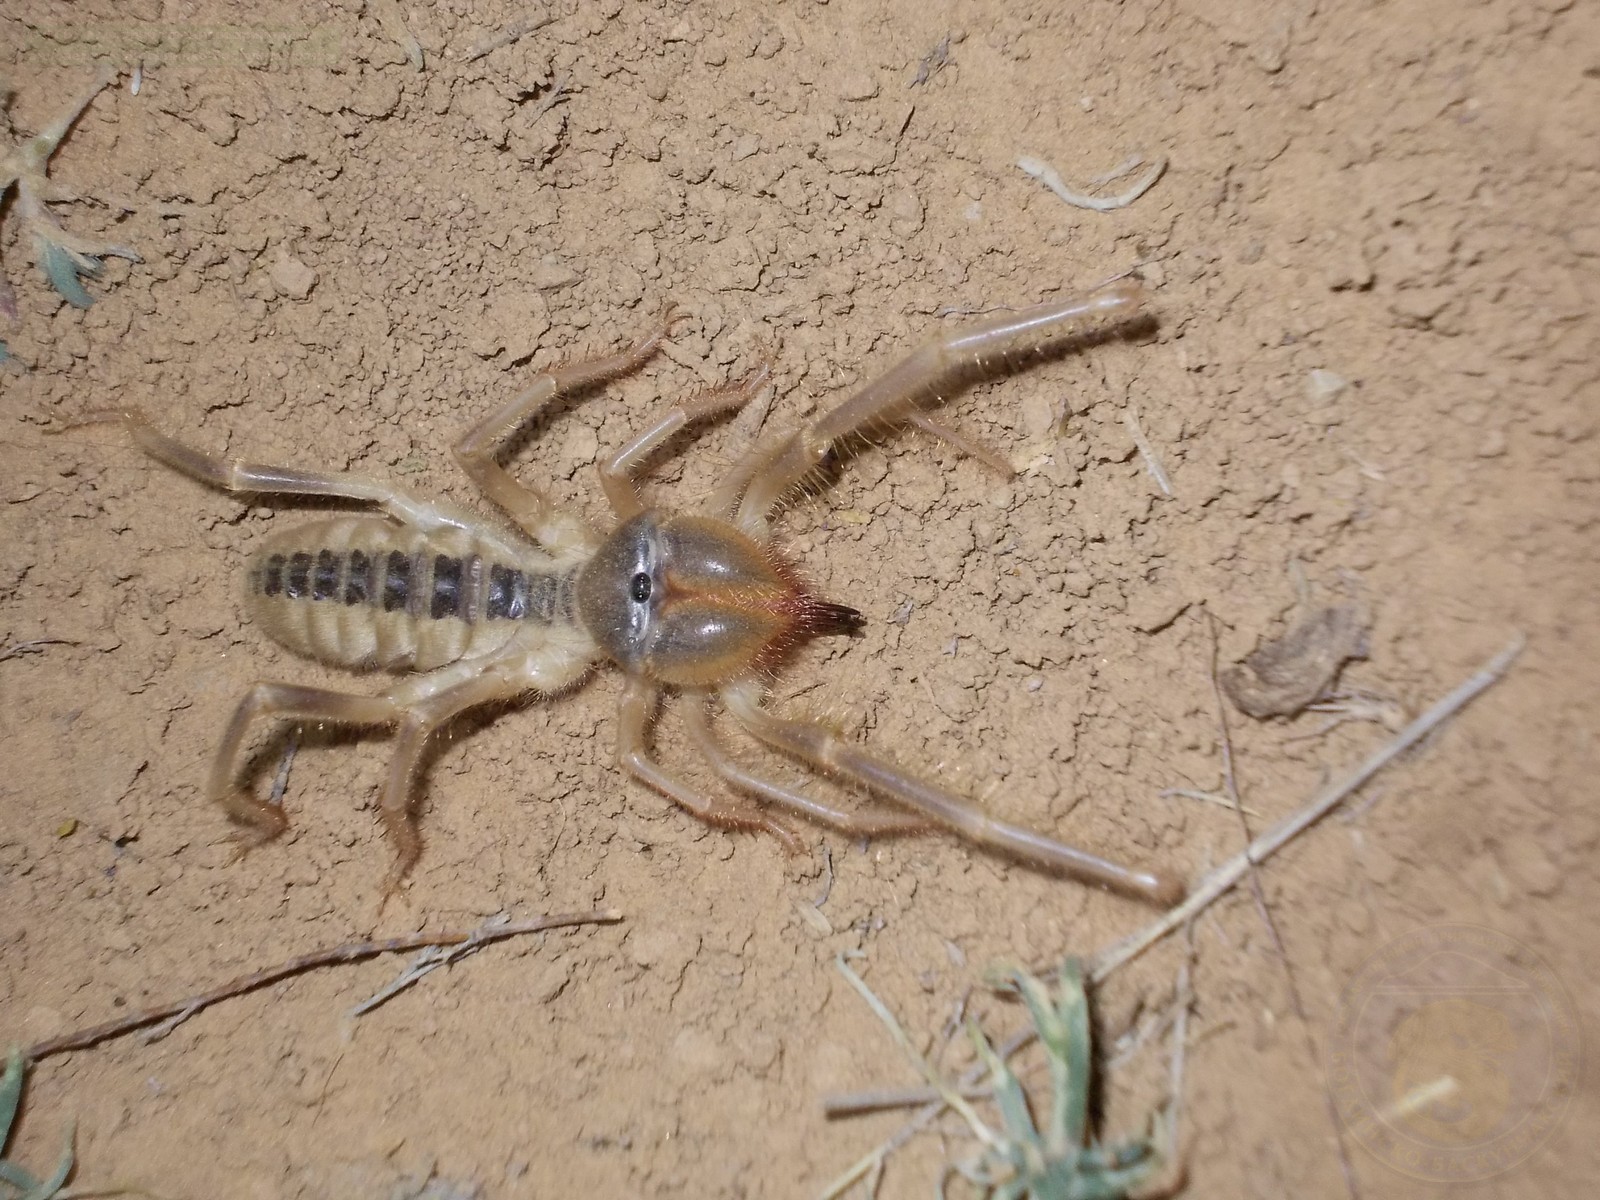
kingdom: Animalia
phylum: Arthropoda
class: Arachnida
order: Solifugae
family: Galeodidae
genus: Galeodes
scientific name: Galeodes araneoides
